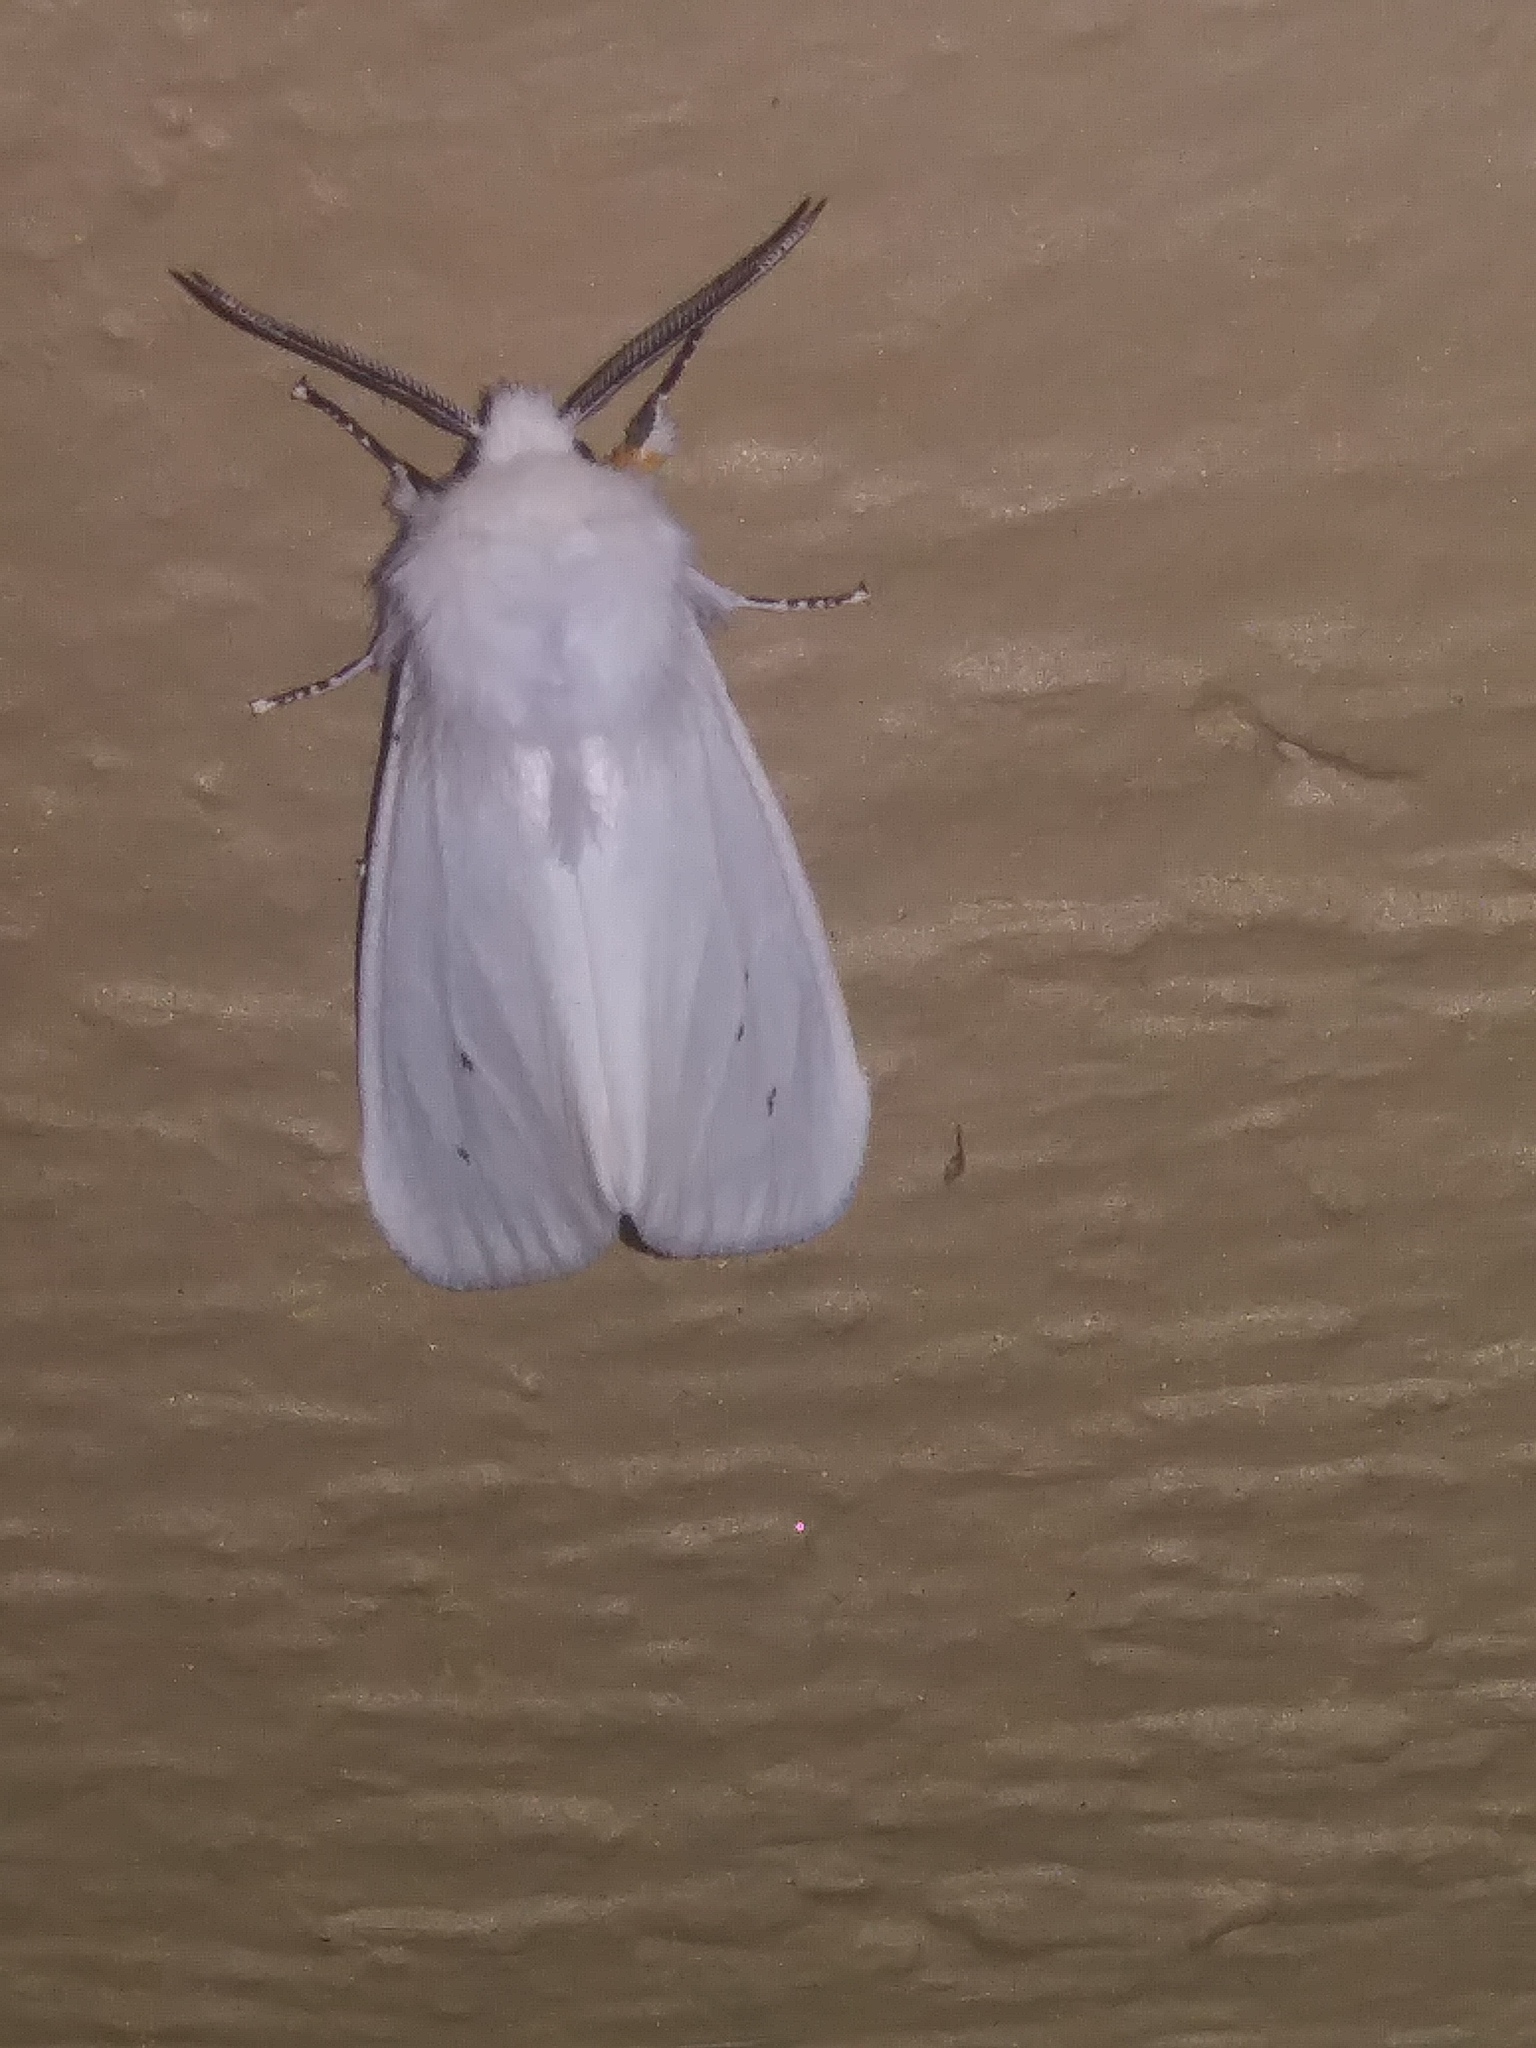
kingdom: Animalia
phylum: Arthropoda
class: Insecta
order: Lepidoptera
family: Erebidae
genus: Spilosoma
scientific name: Spilosoma virginica
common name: Virginia tiger moth
